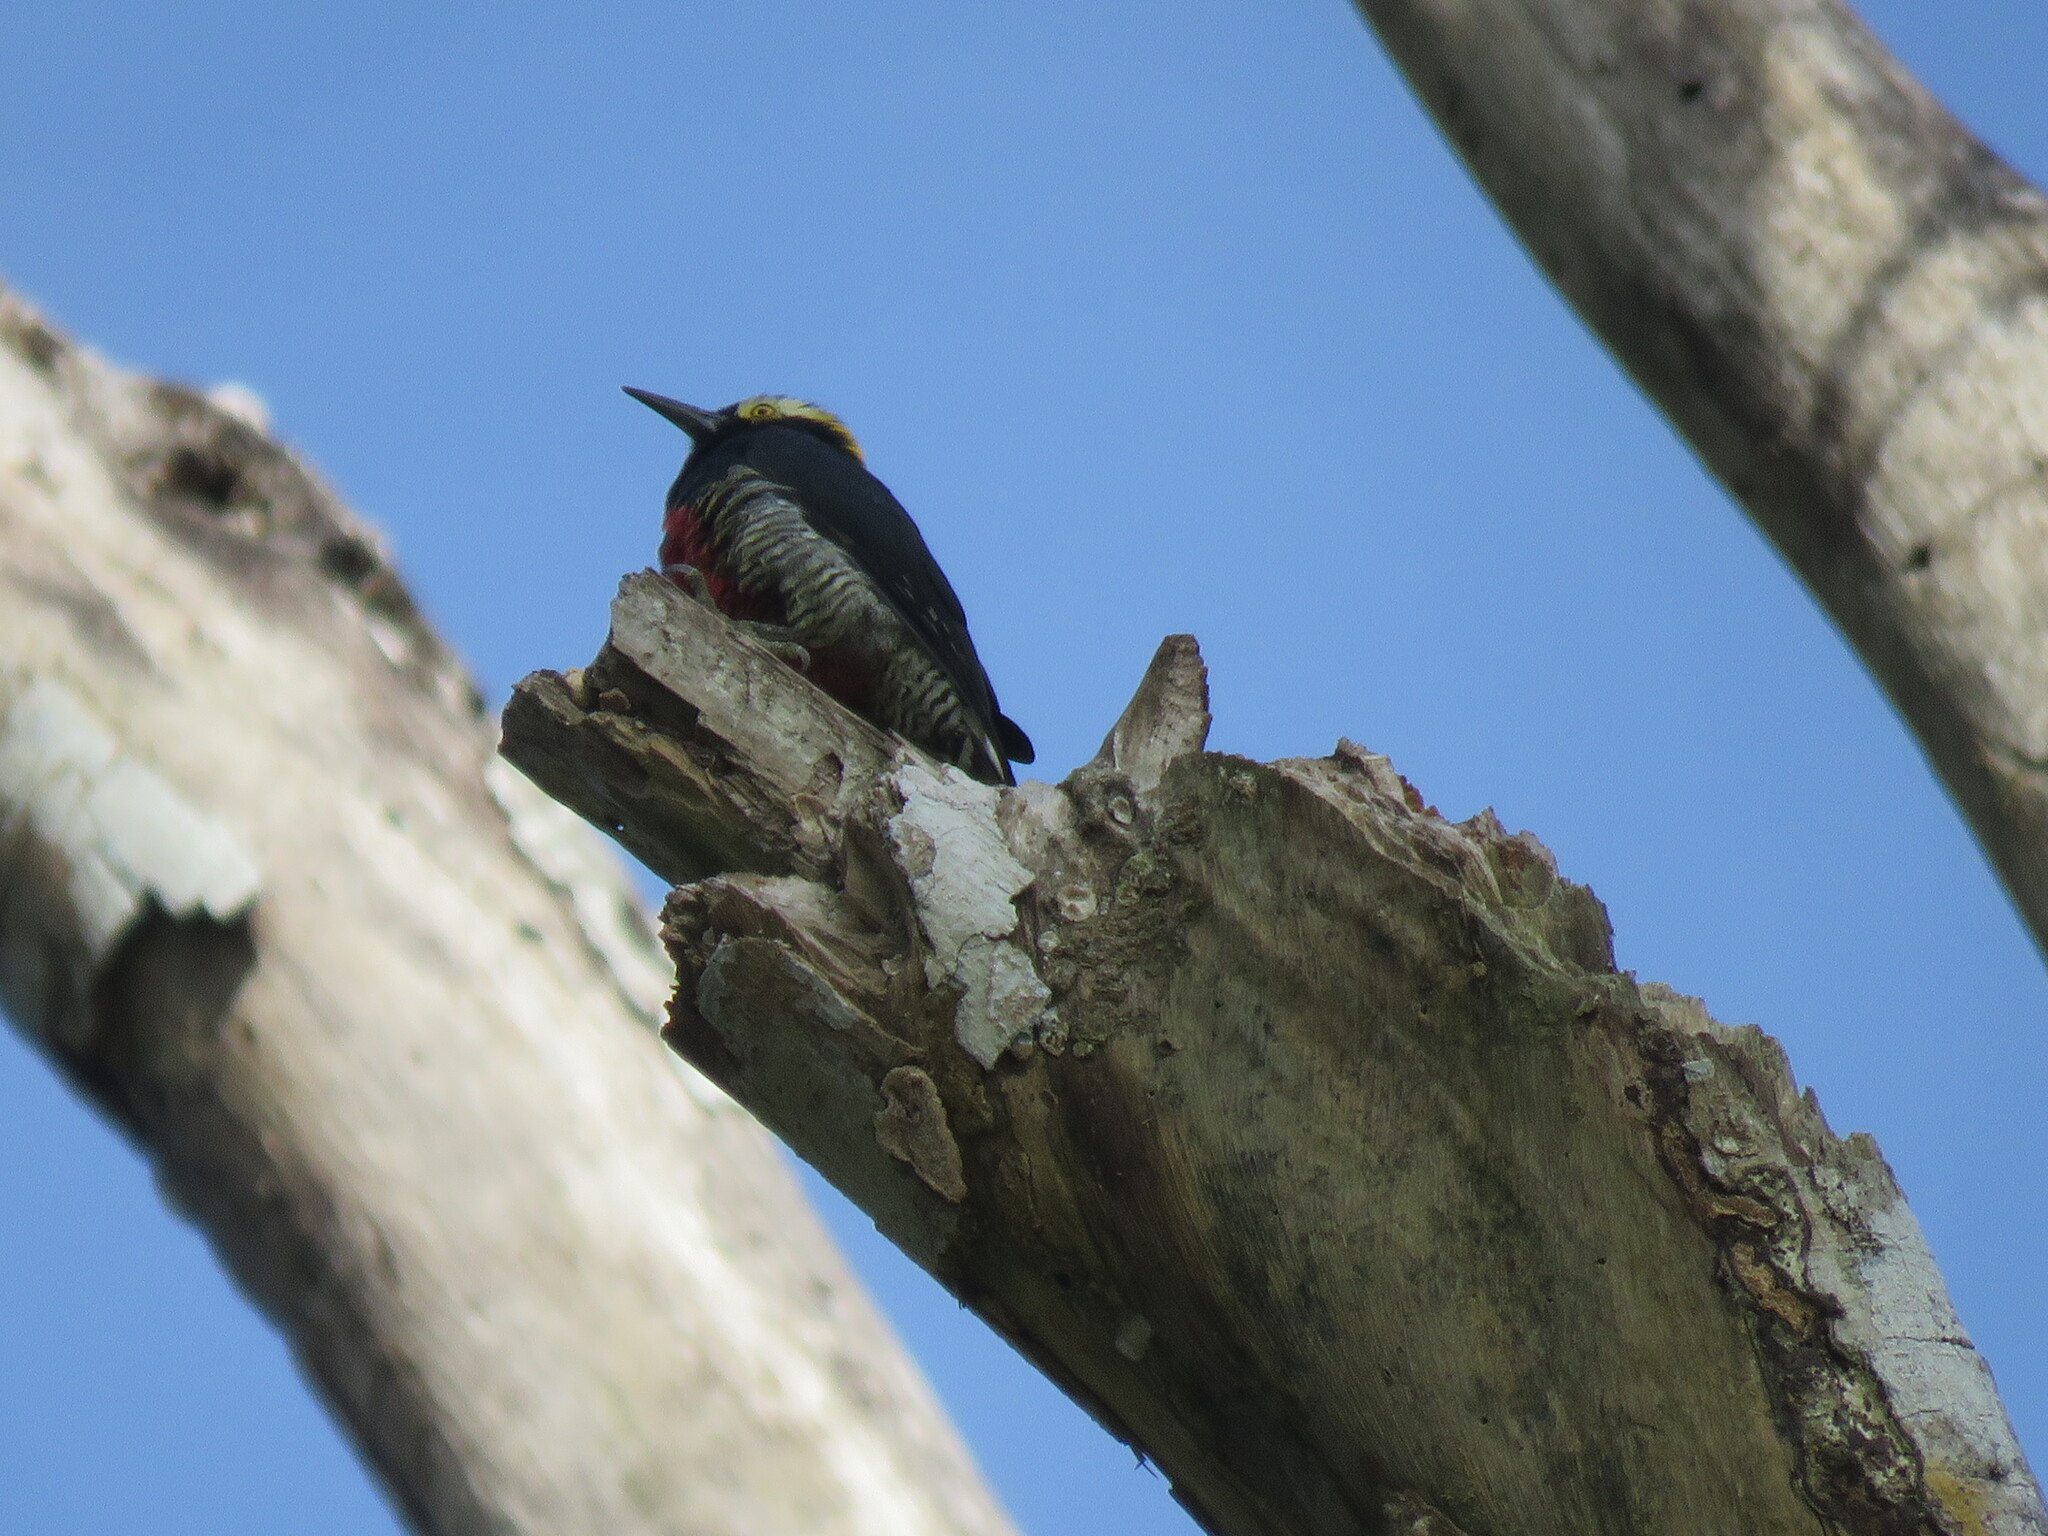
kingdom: Animalia
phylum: Chordata
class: Aves
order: Piciformes
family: Picidae
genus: Melanerpes
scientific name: Melanerpes cruentatus
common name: Yellow-tufted woodpecker
